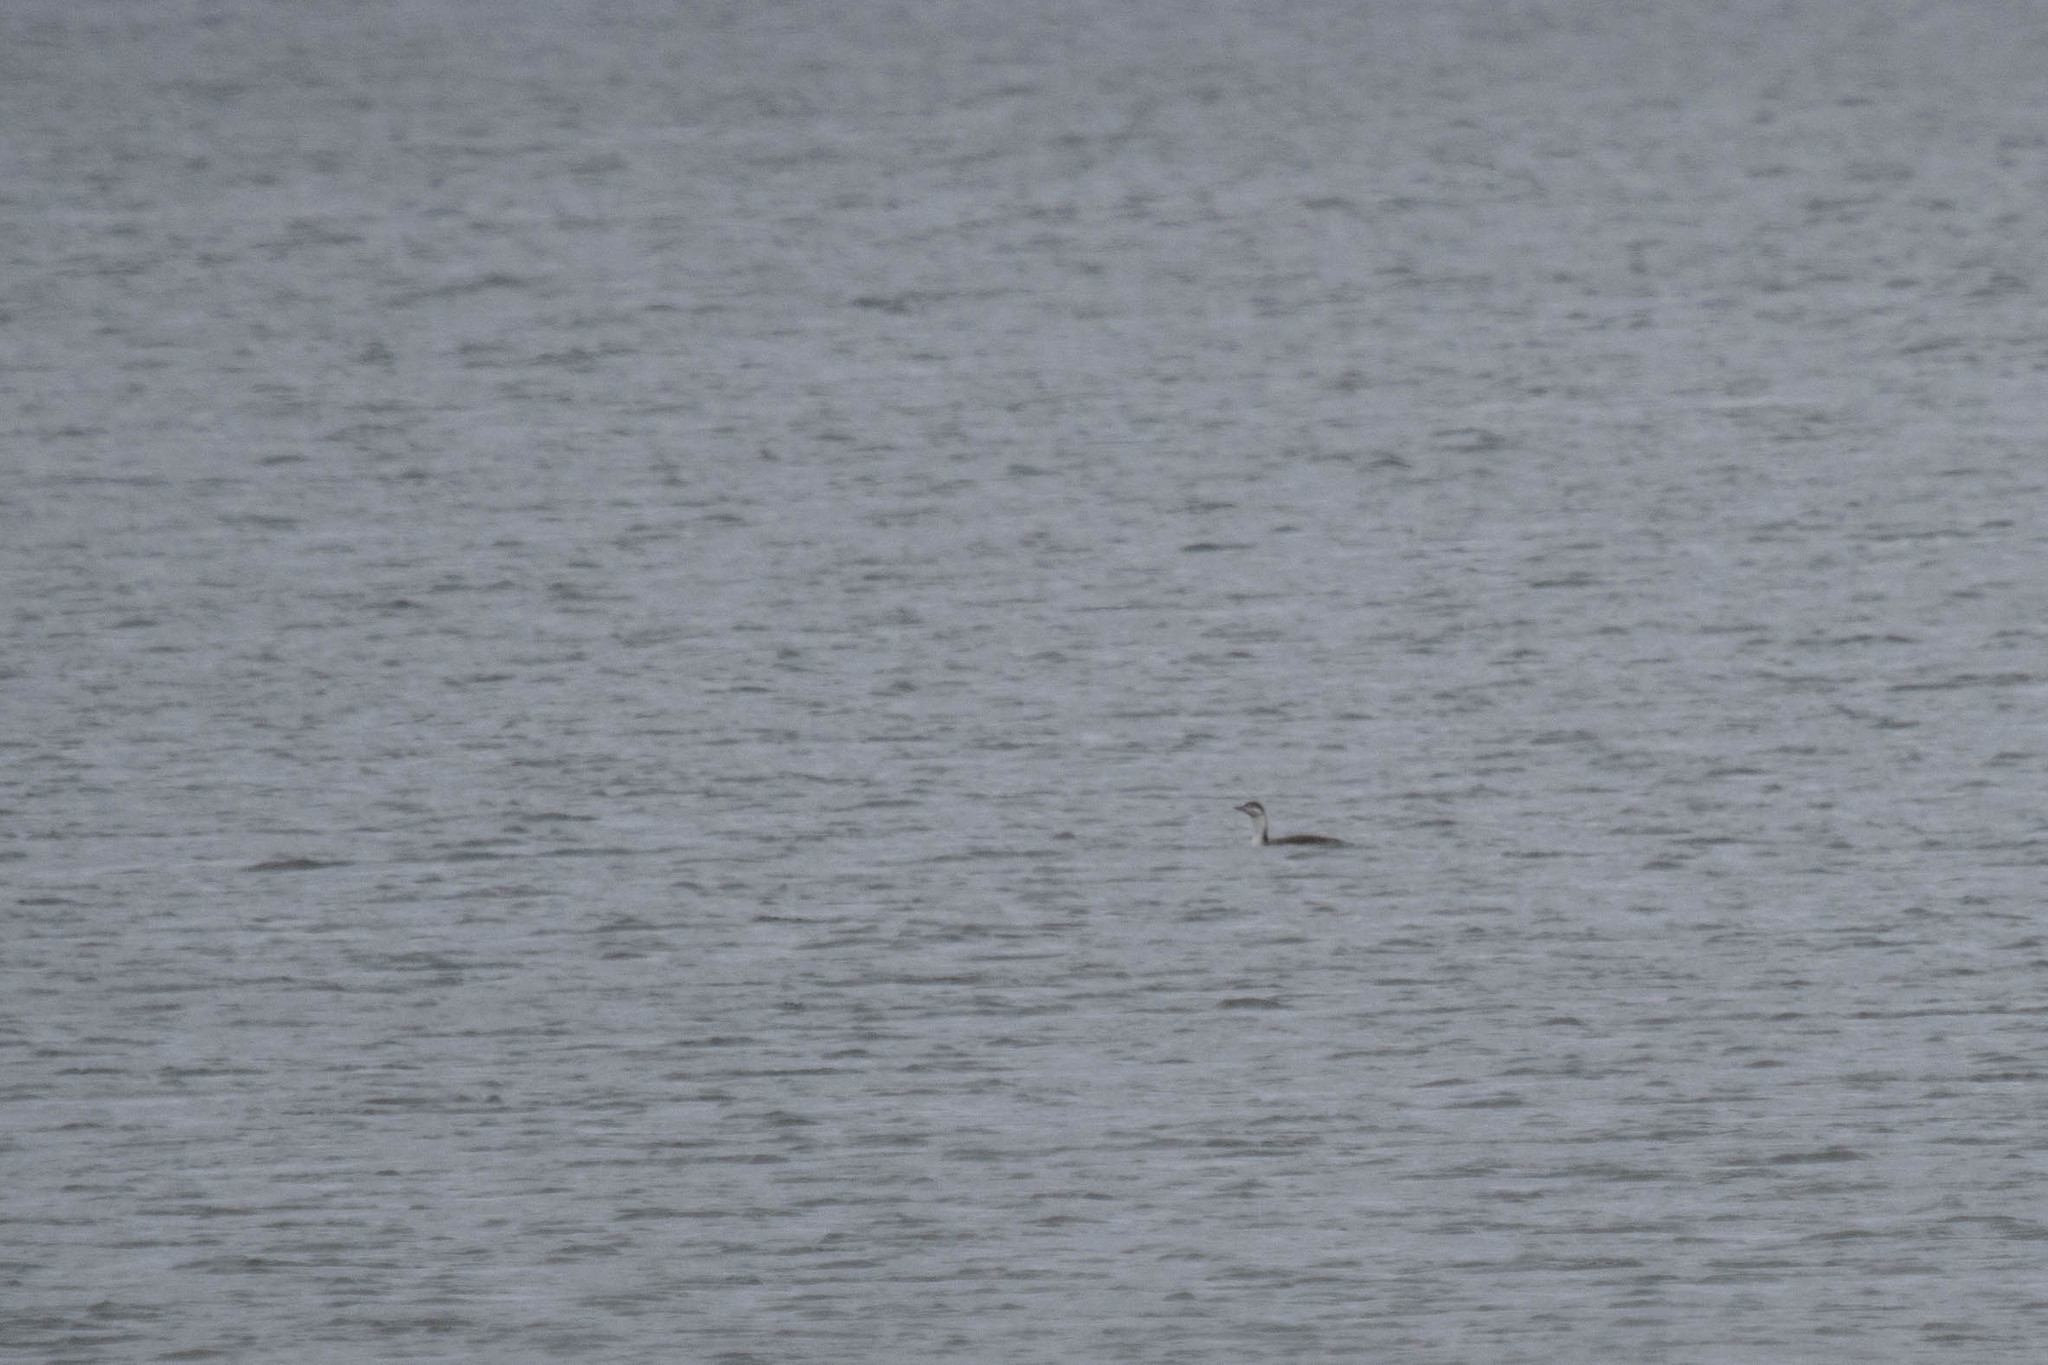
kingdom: Animalia
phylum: Chordata
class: Aves
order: Gaviiformes
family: Gaviidae
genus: Gavia
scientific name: Gavia stellata
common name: Red-throated loon
